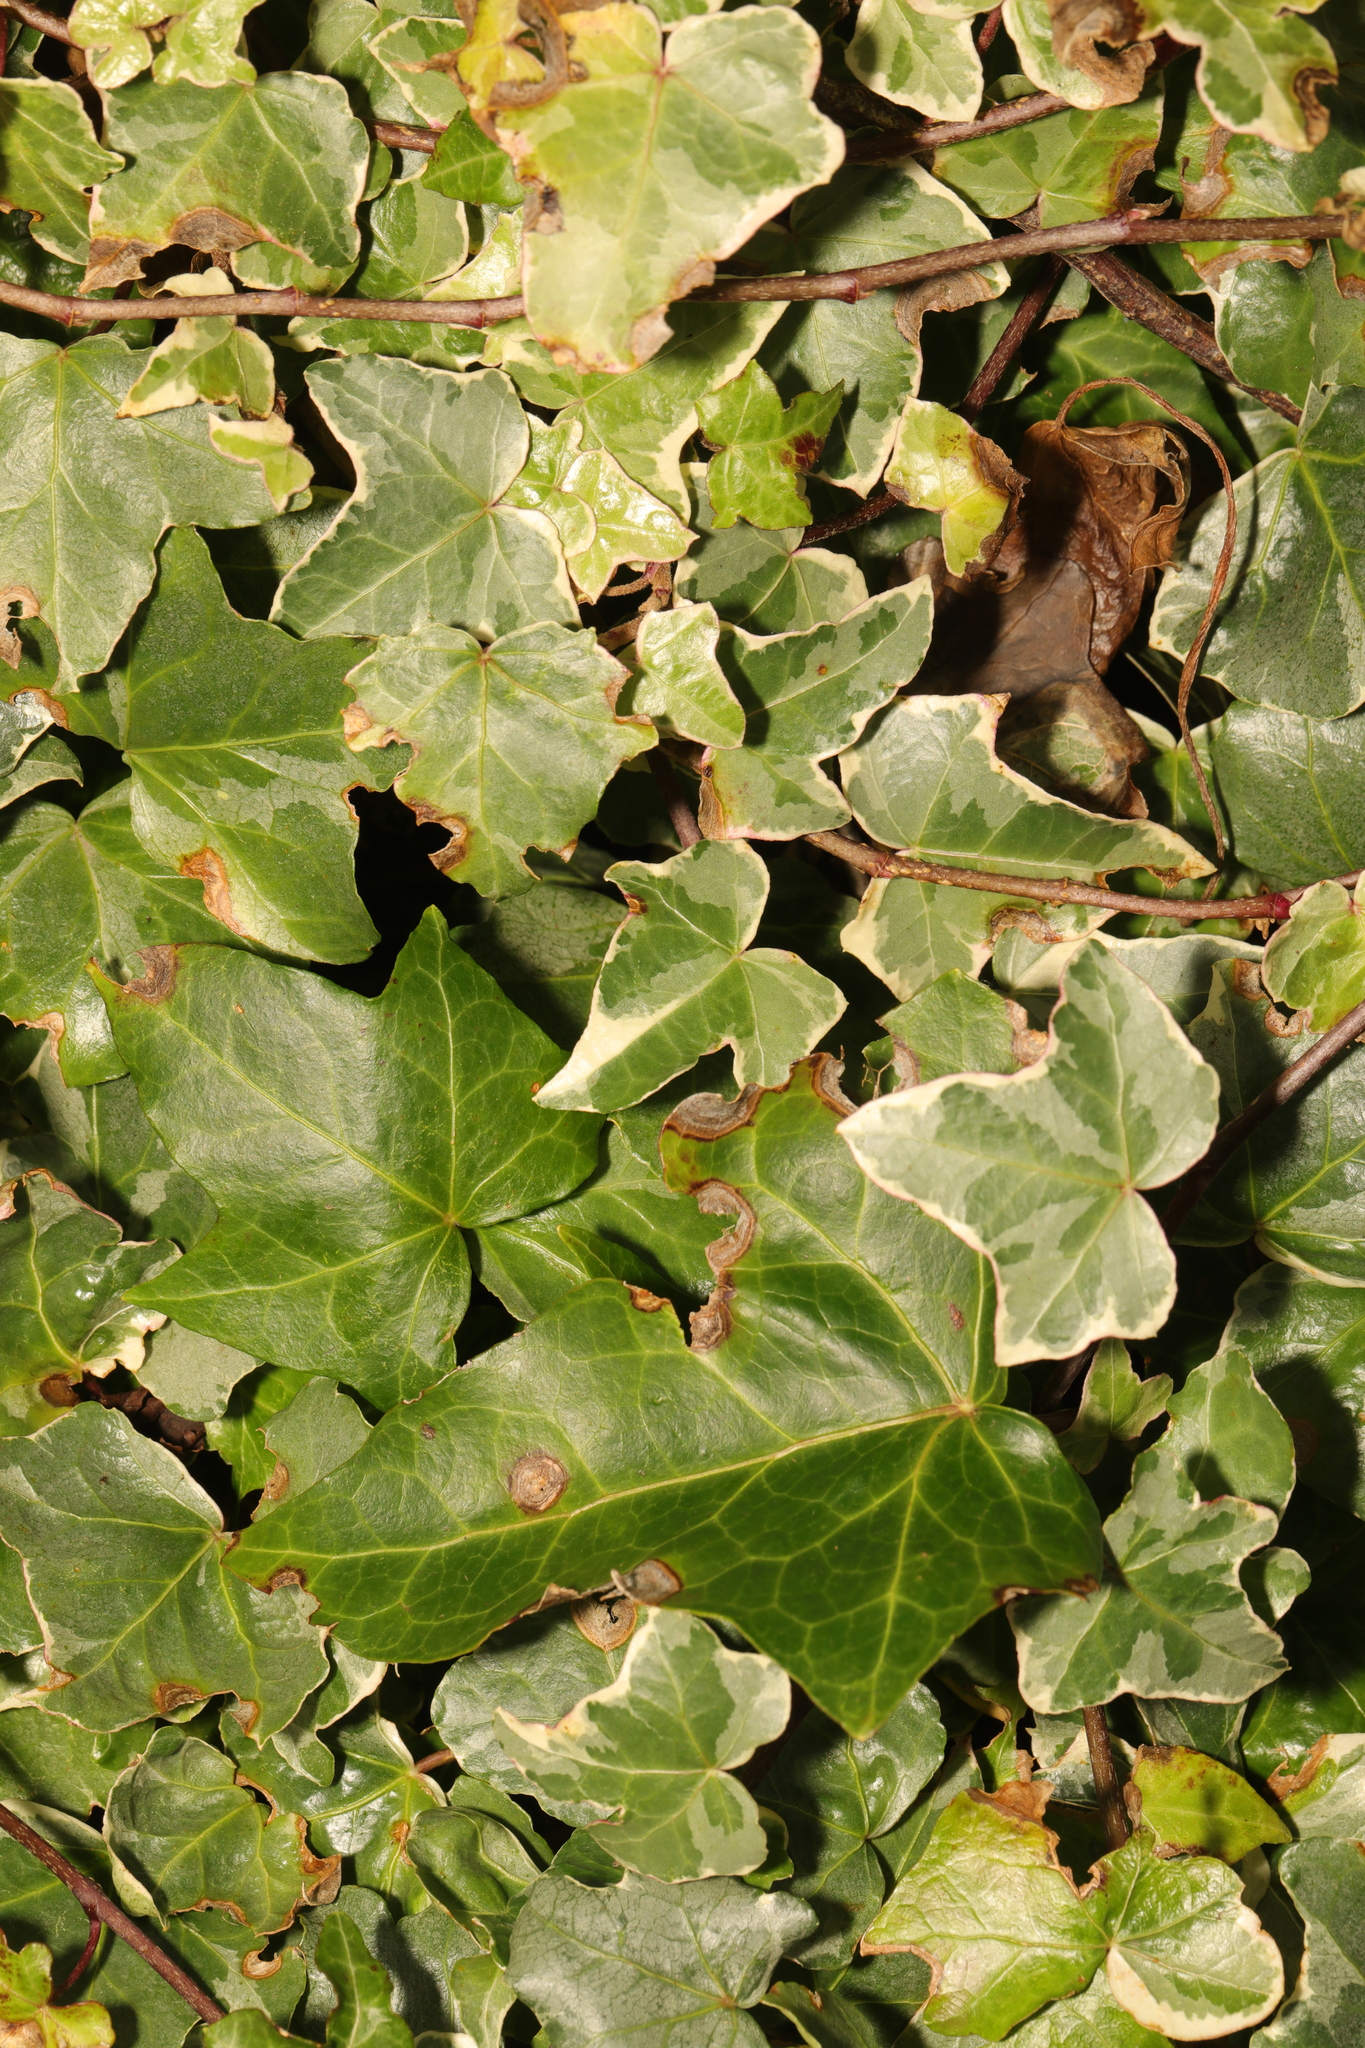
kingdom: Plantae
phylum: Tracheophyta
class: Magnoliopsida
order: Apiales
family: Araliaceae
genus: Hedera
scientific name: Hedera helix
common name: Ivy
